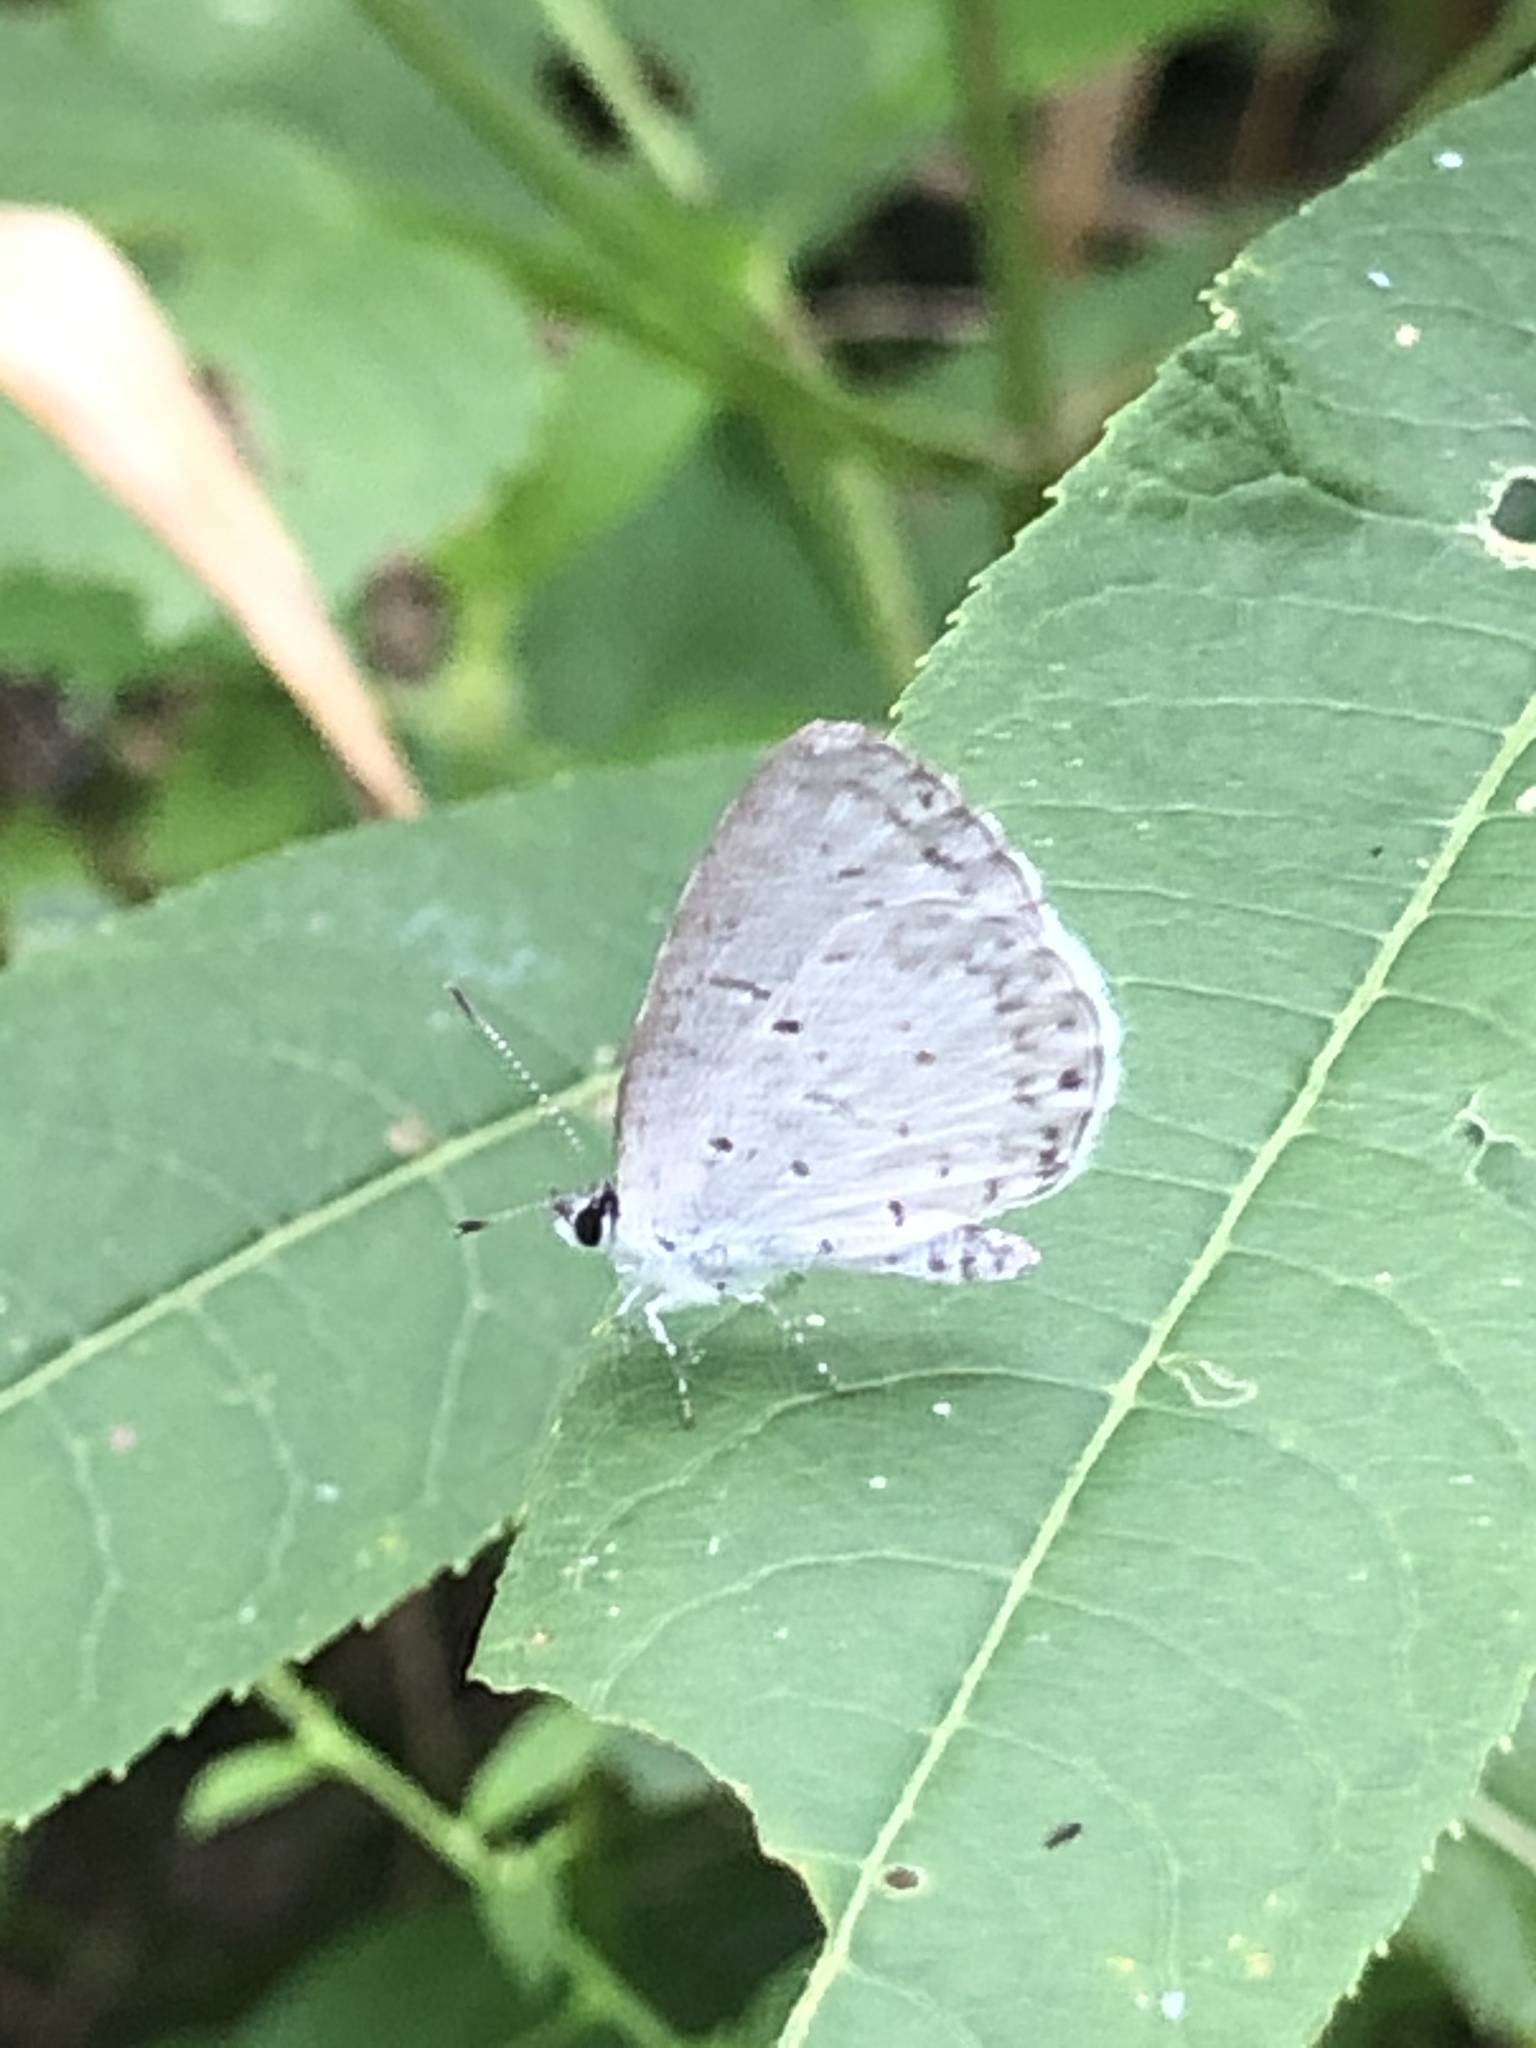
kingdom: Animalia
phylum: Arthropoda
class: Insecta
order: Lepidoptera
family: Lycaenidae
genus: Cyaniris
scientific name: Cyaniris neglecta
